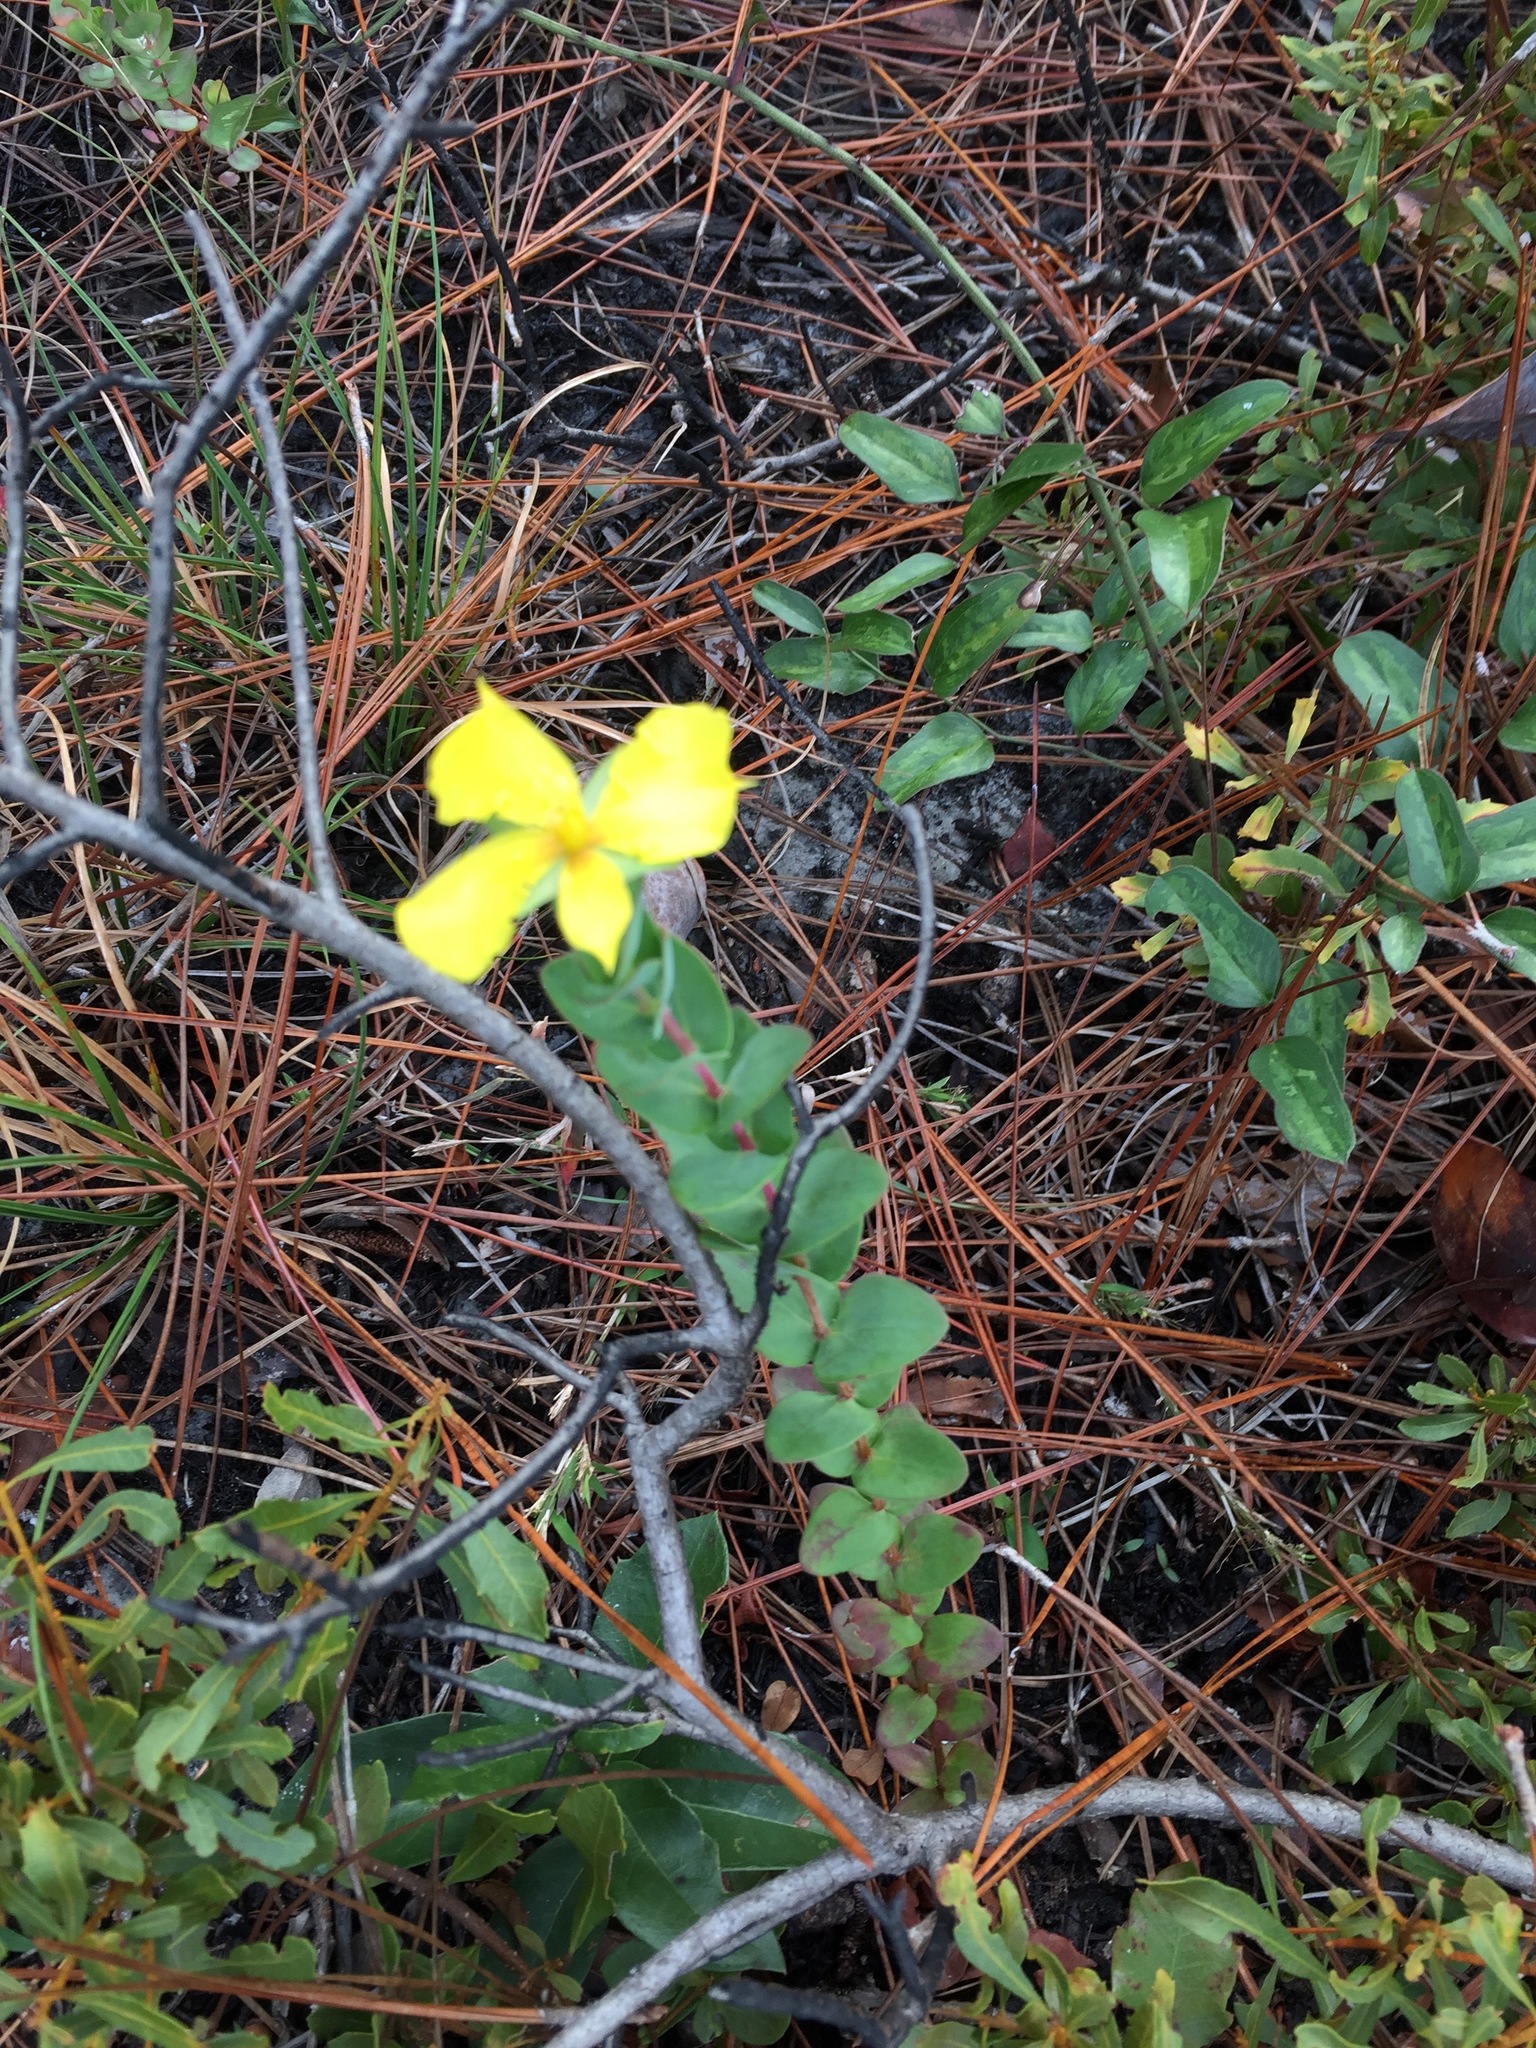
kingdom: Plantae
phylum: Tracheophyta
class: Magnoliopsida
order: Malpighiales
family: Hypericaceae
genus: Hypericum
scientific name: Hypericum tetrapetalum
